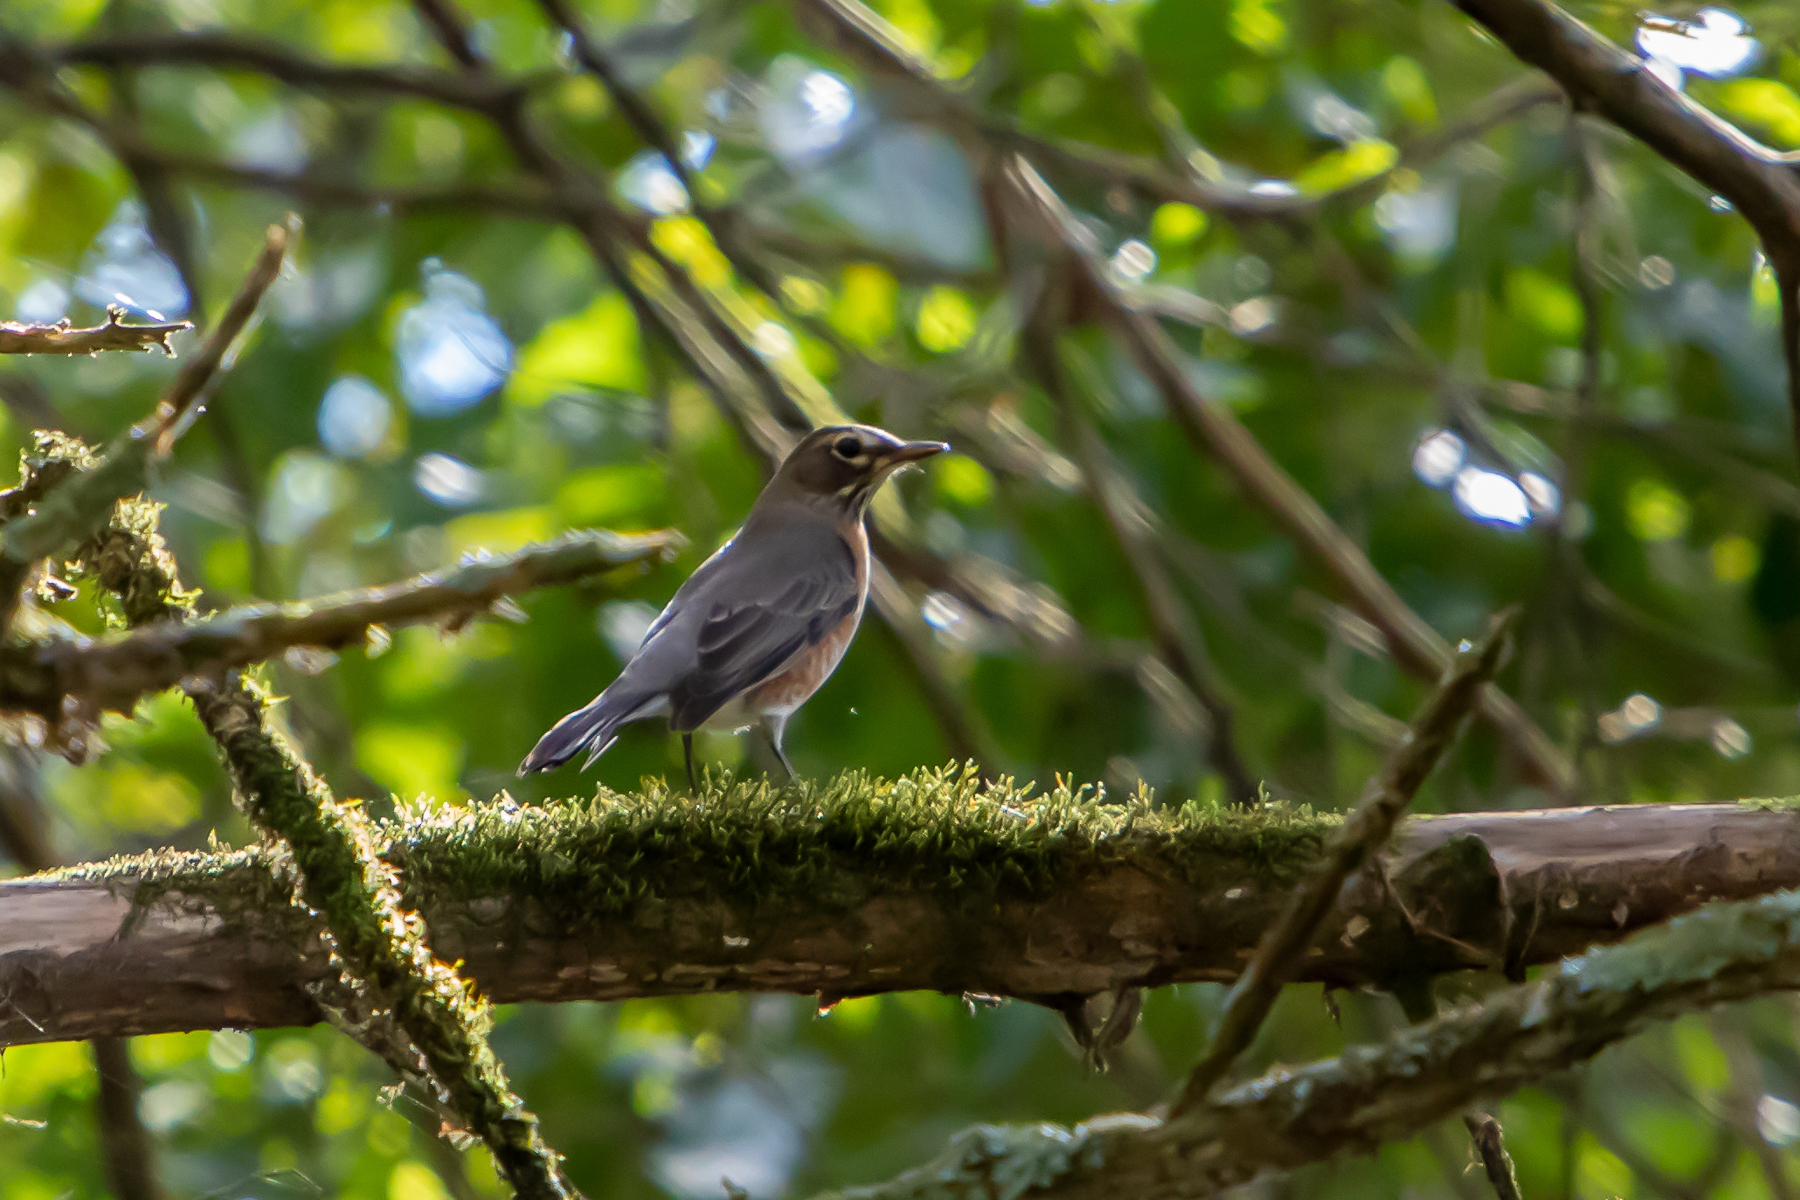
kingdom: Animalia
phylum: Chordata
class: Aves
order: Passeriformes
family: Turdidae
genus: Turdus
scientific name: Turdus migratorius
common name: American robin
